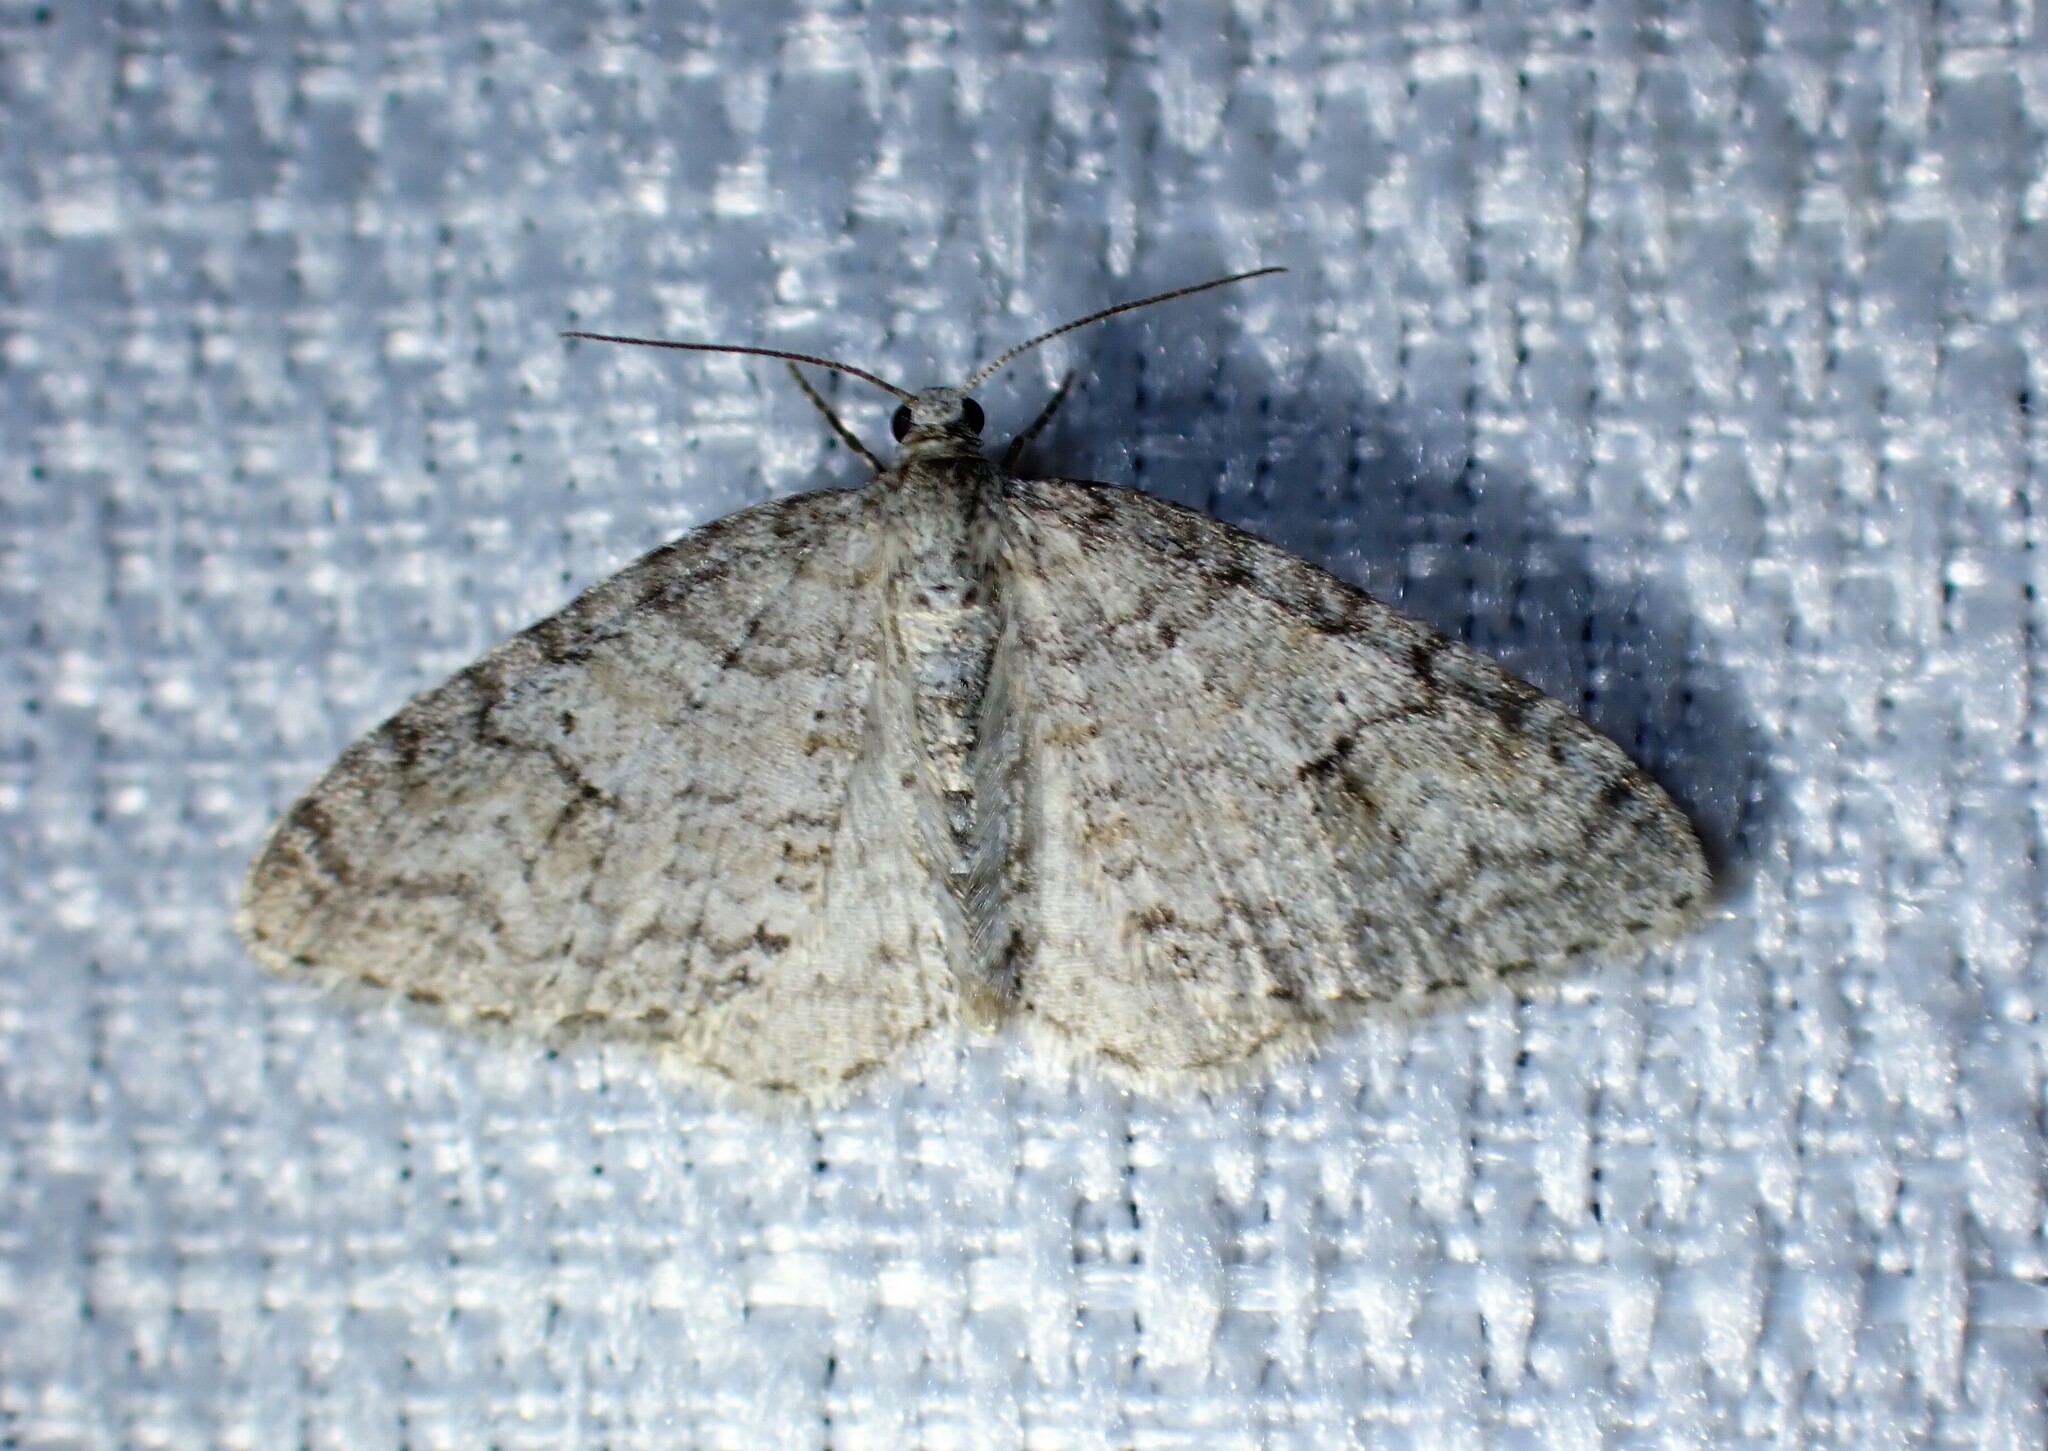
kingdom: Animalia
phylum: Arthropoda
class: Insecta
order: Lepidoptera
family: Geometridae
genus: Venusia
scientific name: Venusia comptaria
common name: Brown-shaded carpet
